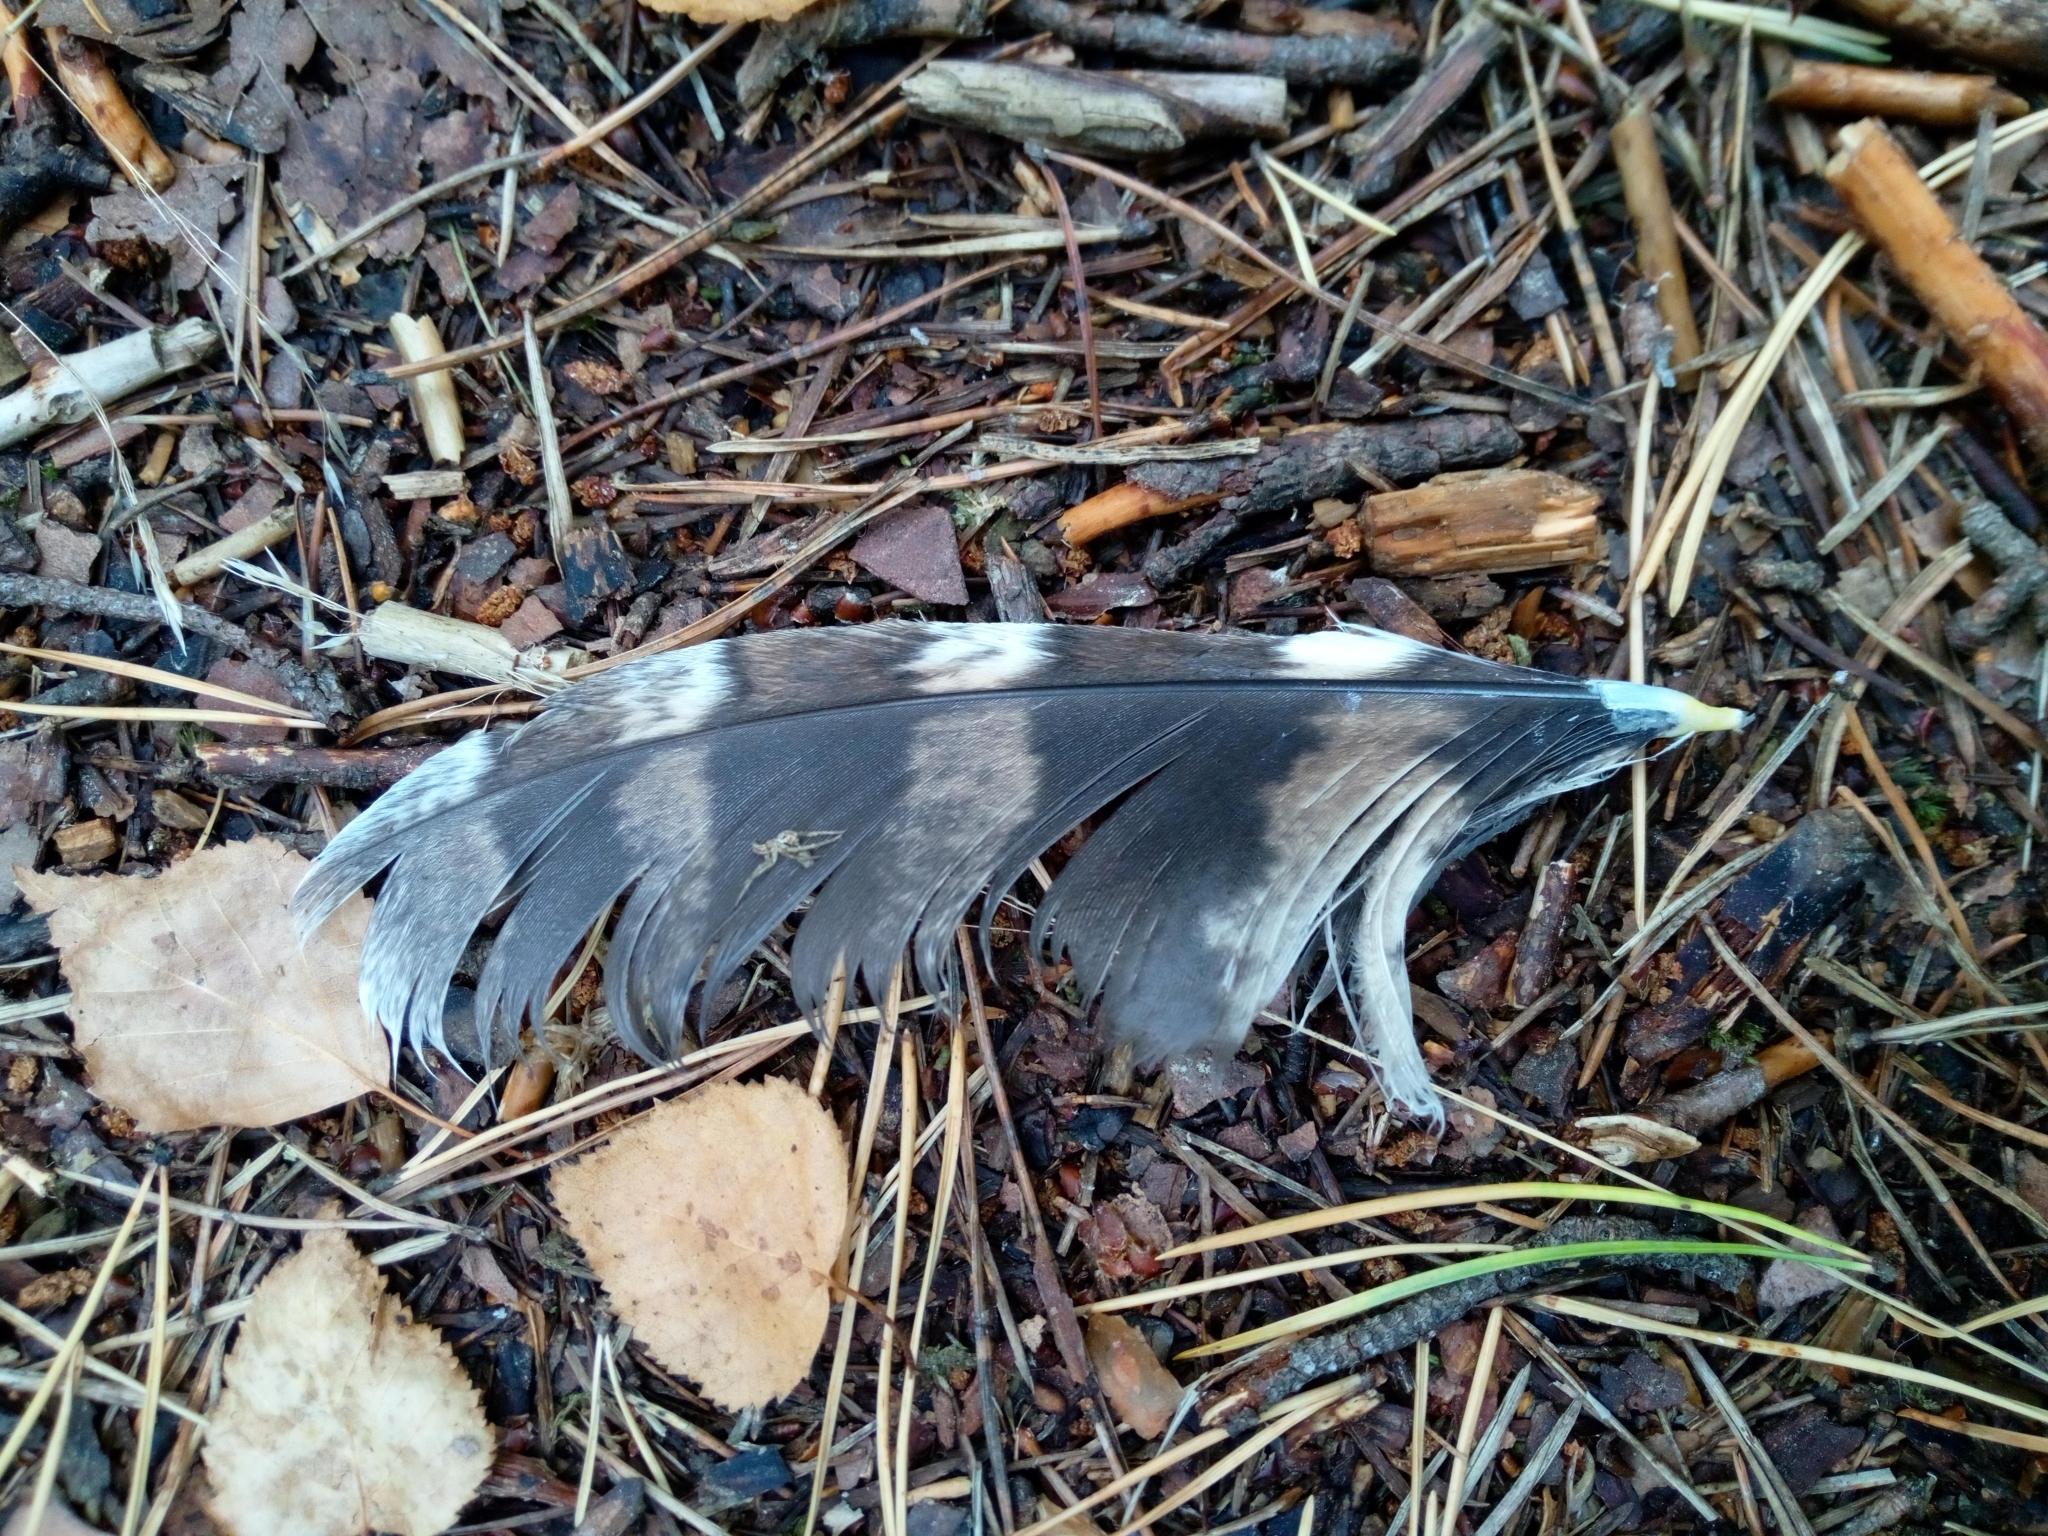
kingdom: Animalia
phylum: Chordata
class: Aves
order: Strigiformes
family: Strigidae
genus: Strix
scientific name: Strix aluco
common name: Tawny owl
